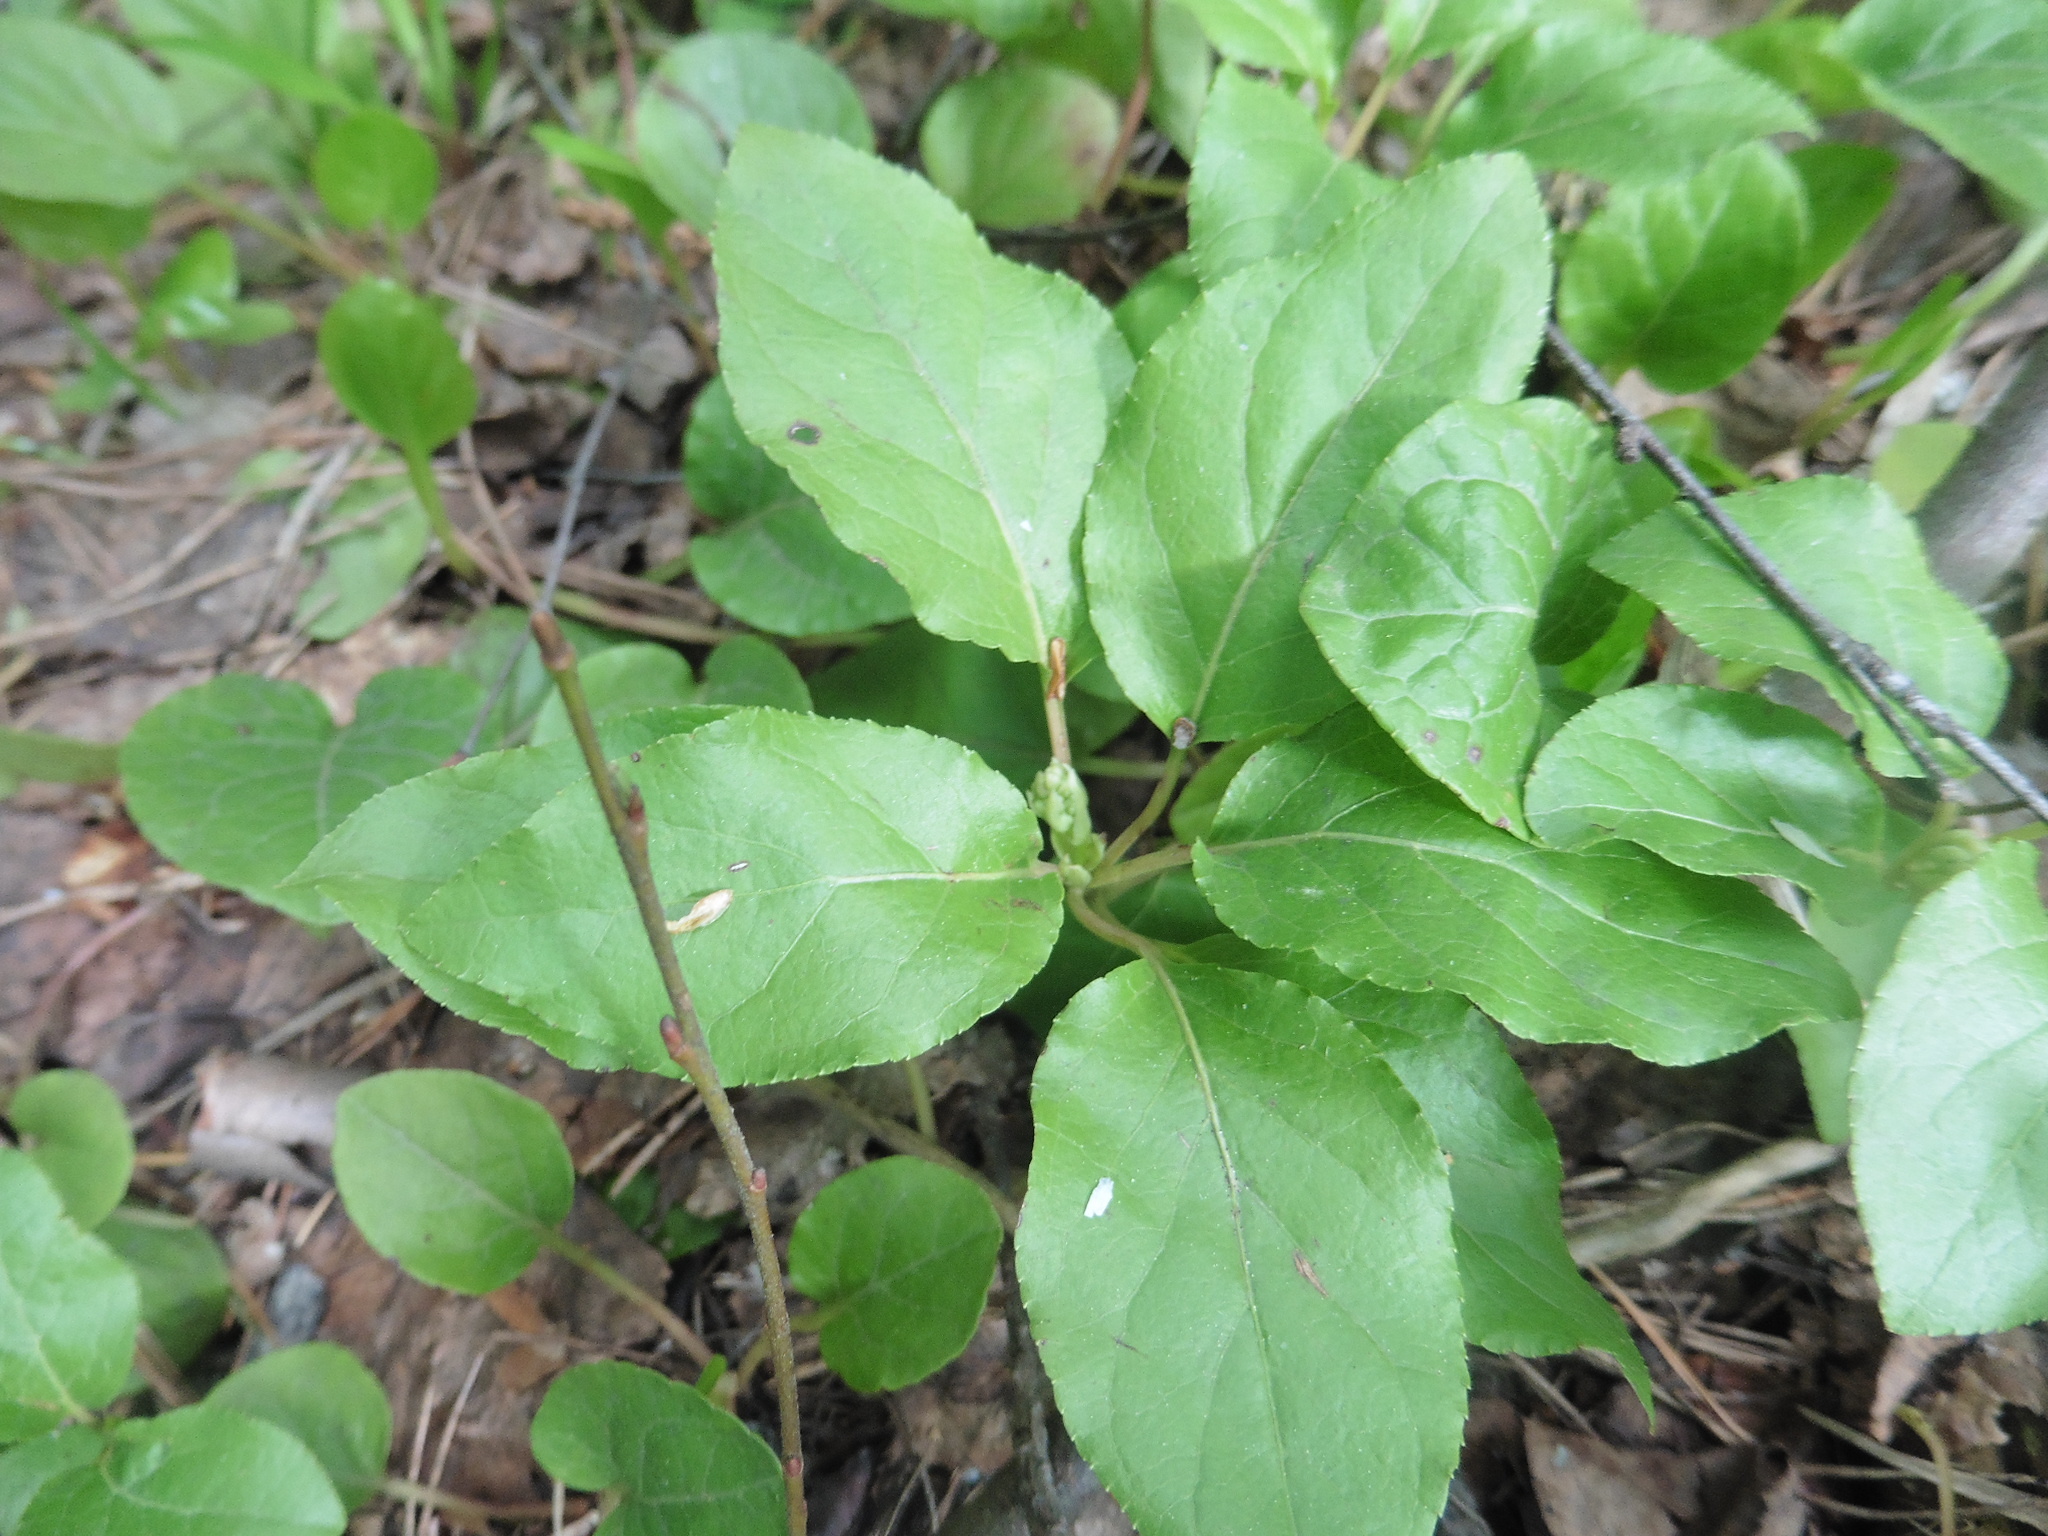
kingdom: Plantae
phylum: Tracheophyta
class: Magnoliopsida
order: Ericales
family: Ericaceae
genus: Orthilia
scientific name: Orthilia secunda
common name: One-sided orthilia
